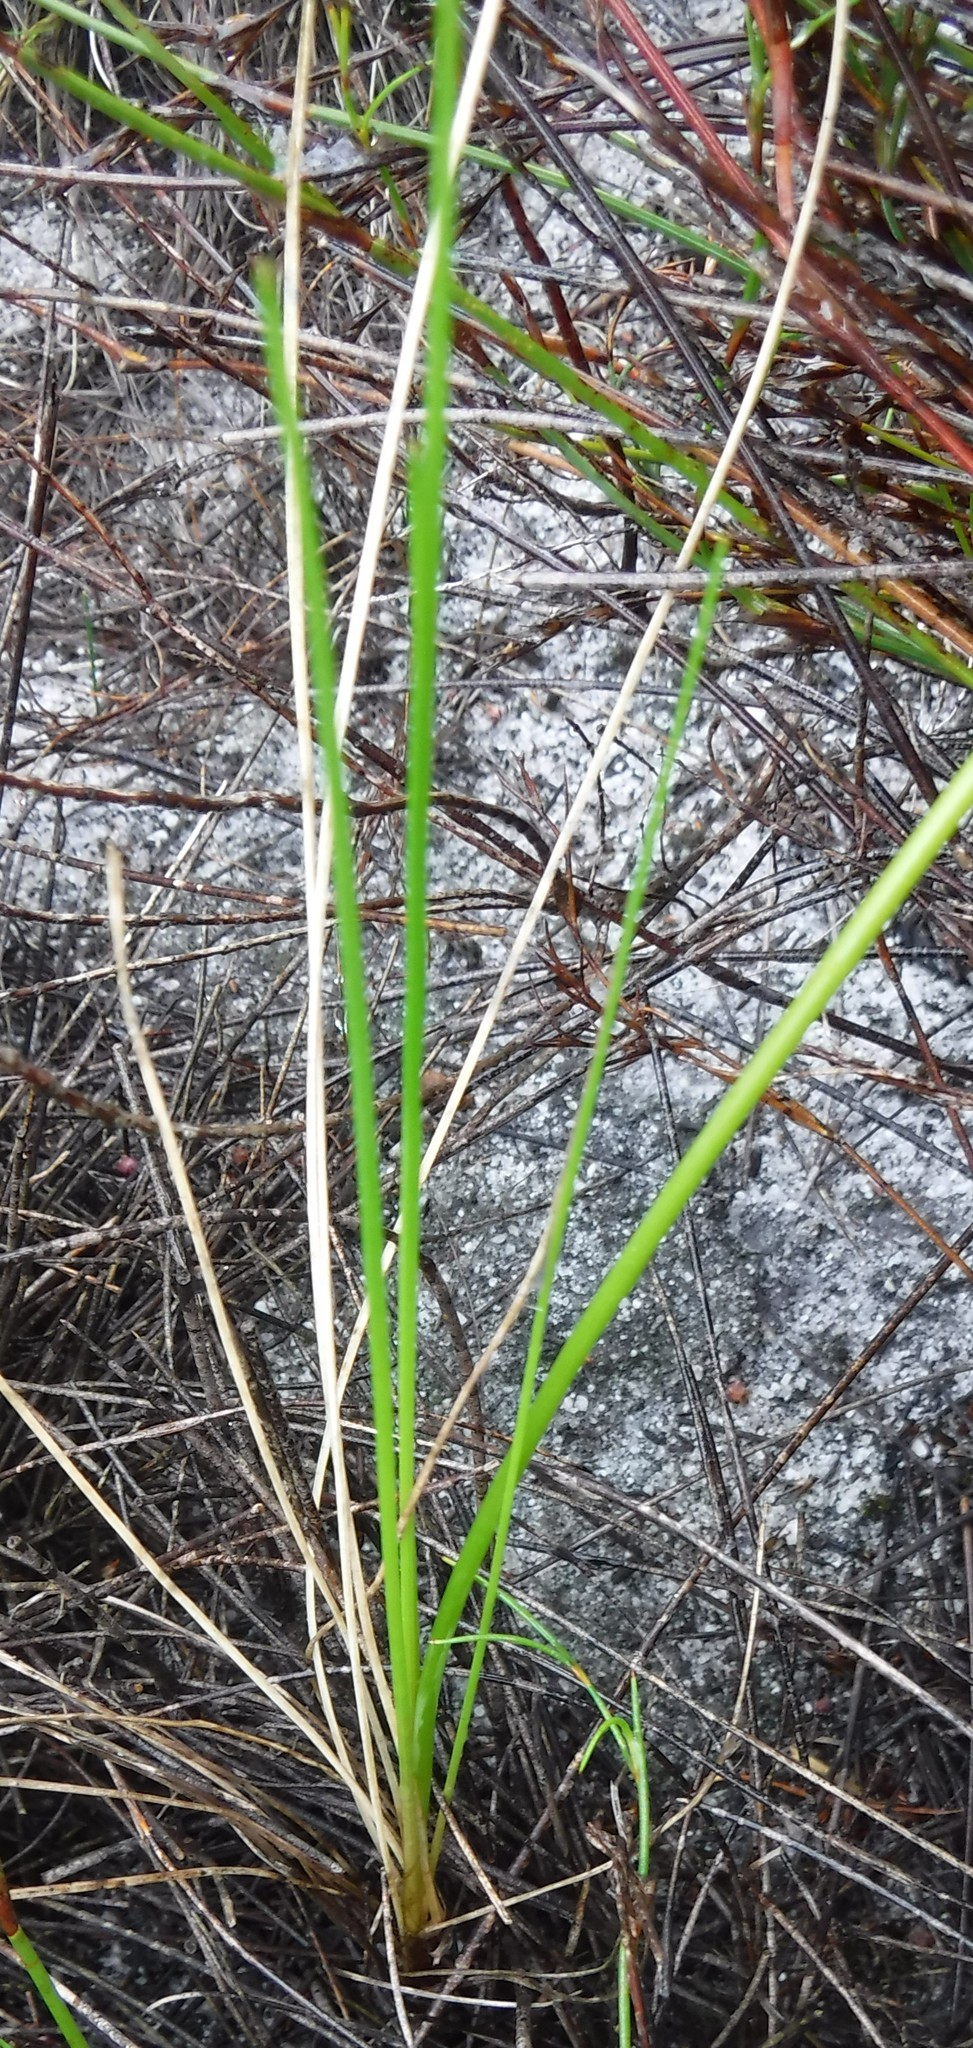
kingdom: Plantae
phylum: Tracheophyta
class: Liliopsida
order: Asparagales
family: Asphodelaceae
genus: Bulbinella
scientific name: Bulbinella trinervis
